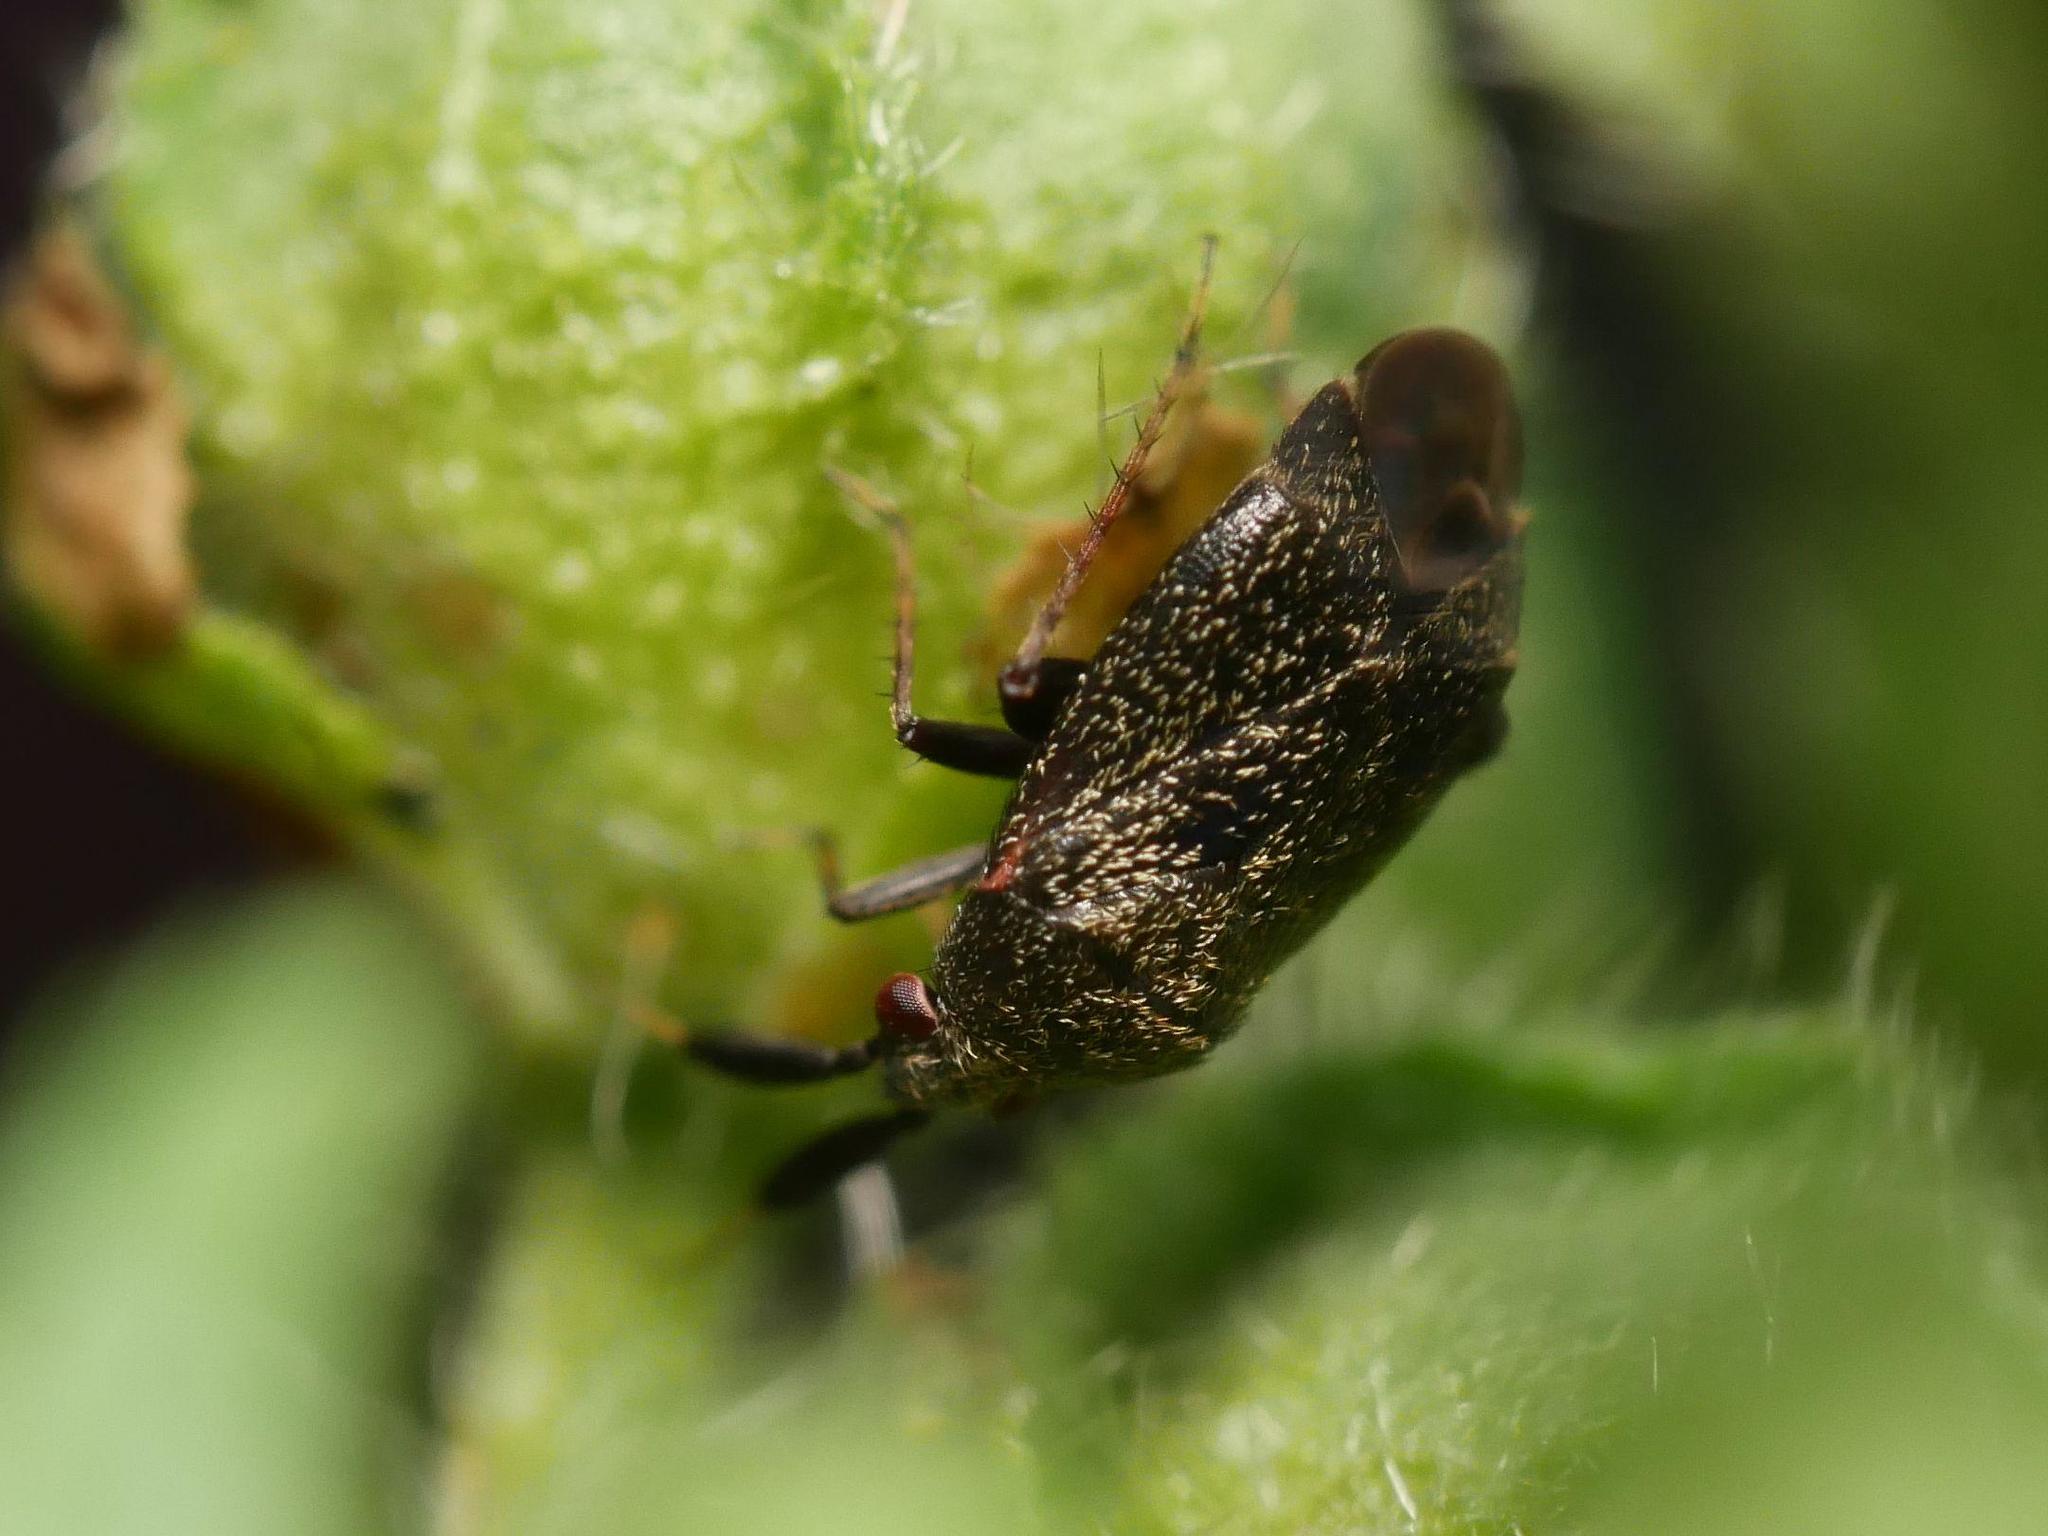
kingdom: Animalia
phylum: Arthropoda
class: Insecta
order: Hemiptera
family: Miridae
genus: Mesopsallus
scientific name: Mesopsallus
